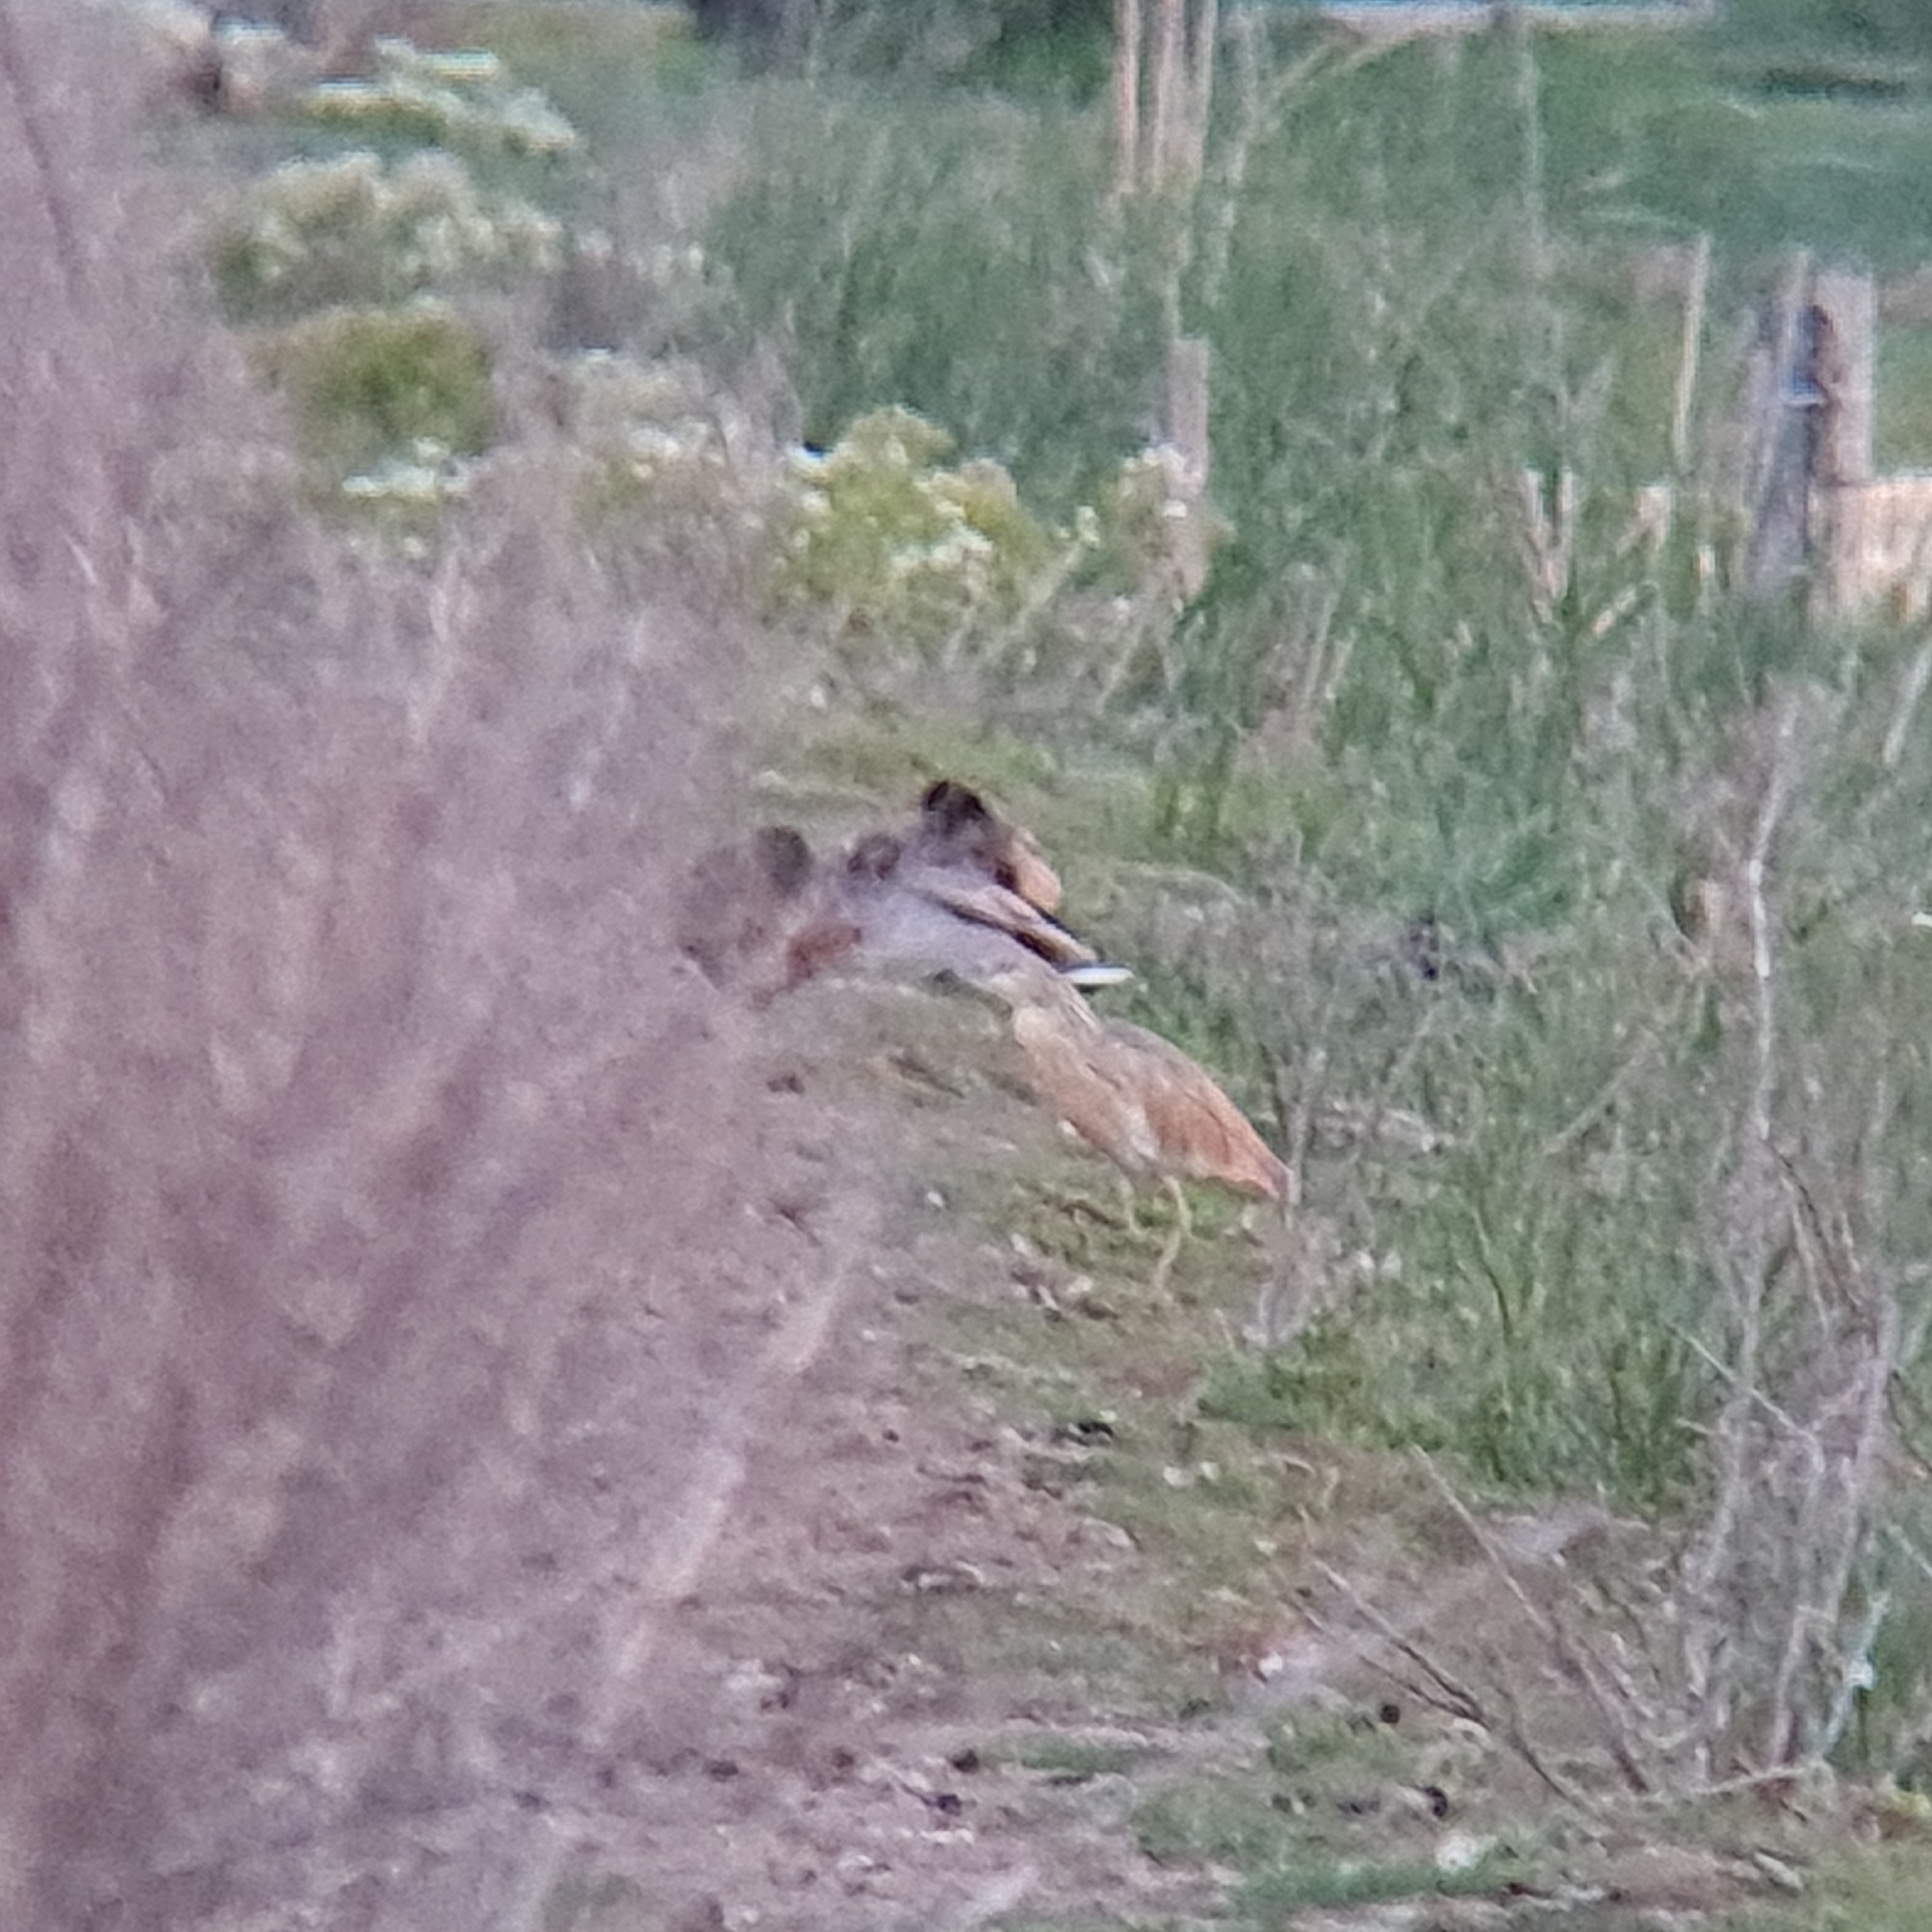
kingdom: Animalia
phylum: Chordata
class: Aves
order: Pelecaniformes
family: Ardeidae
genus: Ardeola
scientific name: Ardeola ralloides
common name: Squacco heron
